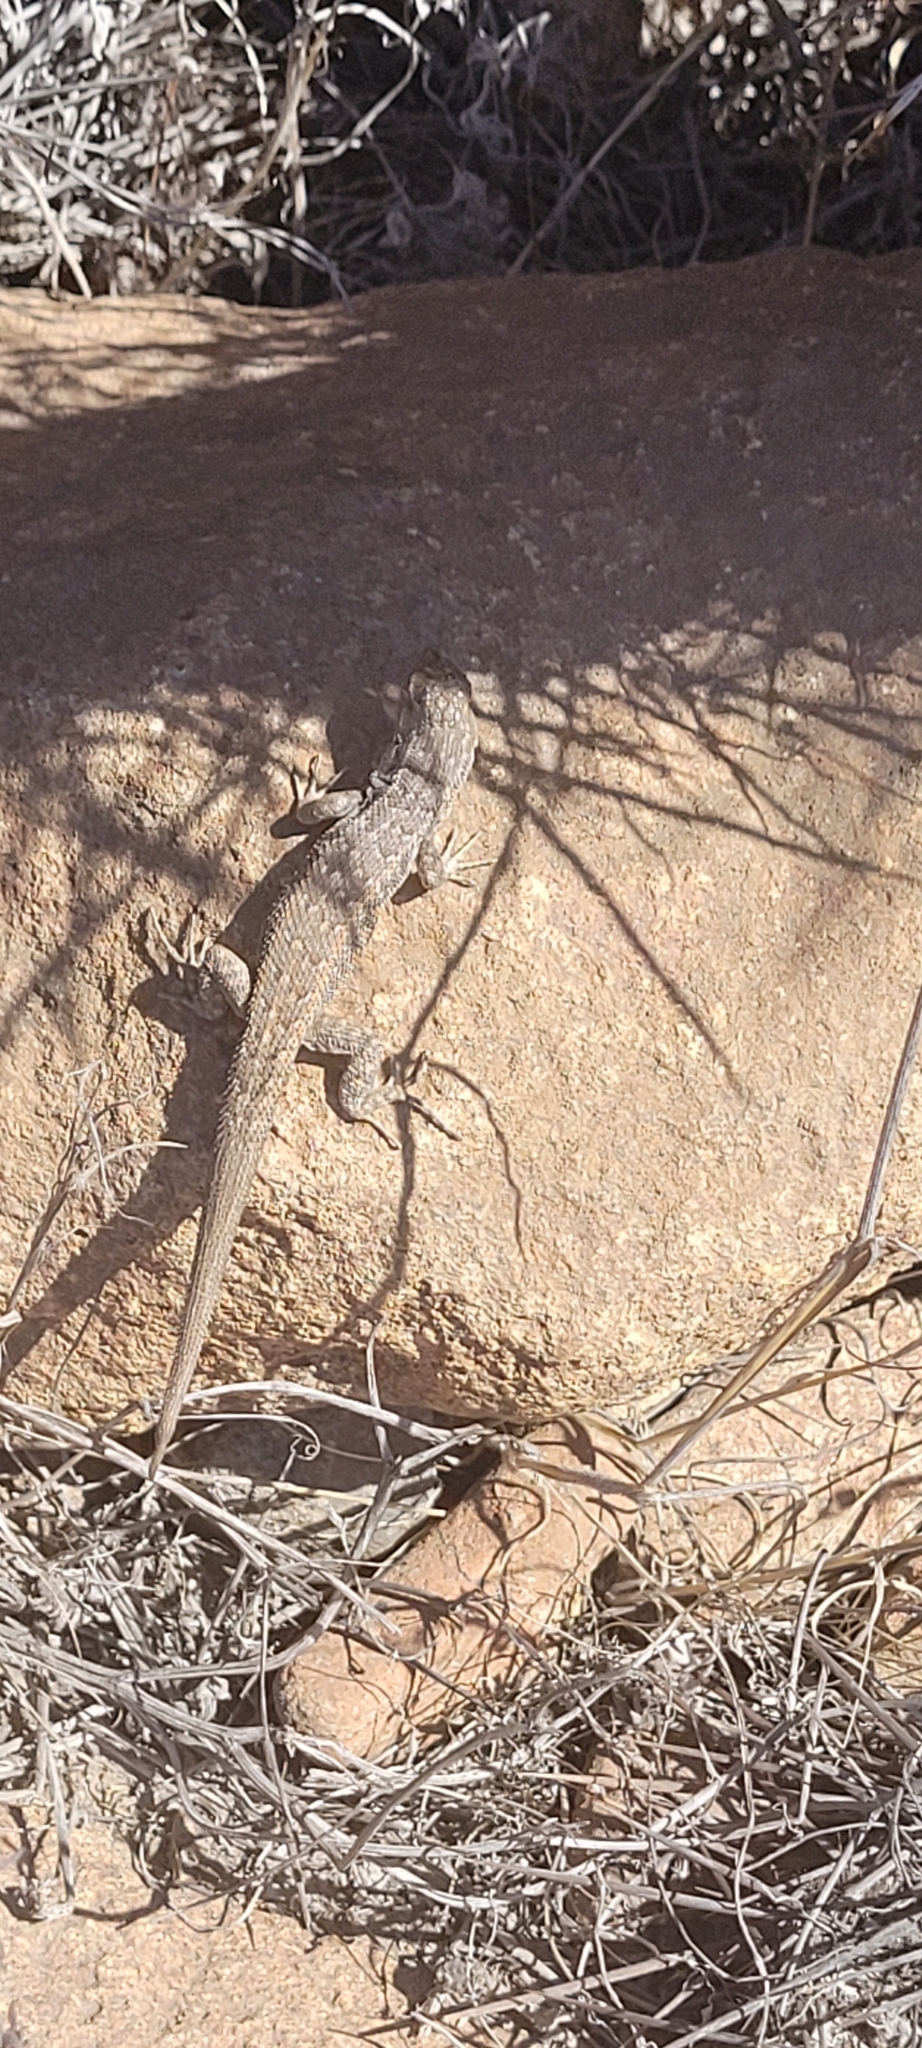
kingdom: Animalia
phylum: Chordata
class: Squamata
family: Liolaemidae
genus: Liolaemus
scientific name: Liolaemus platei
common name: Braided tree iguana
